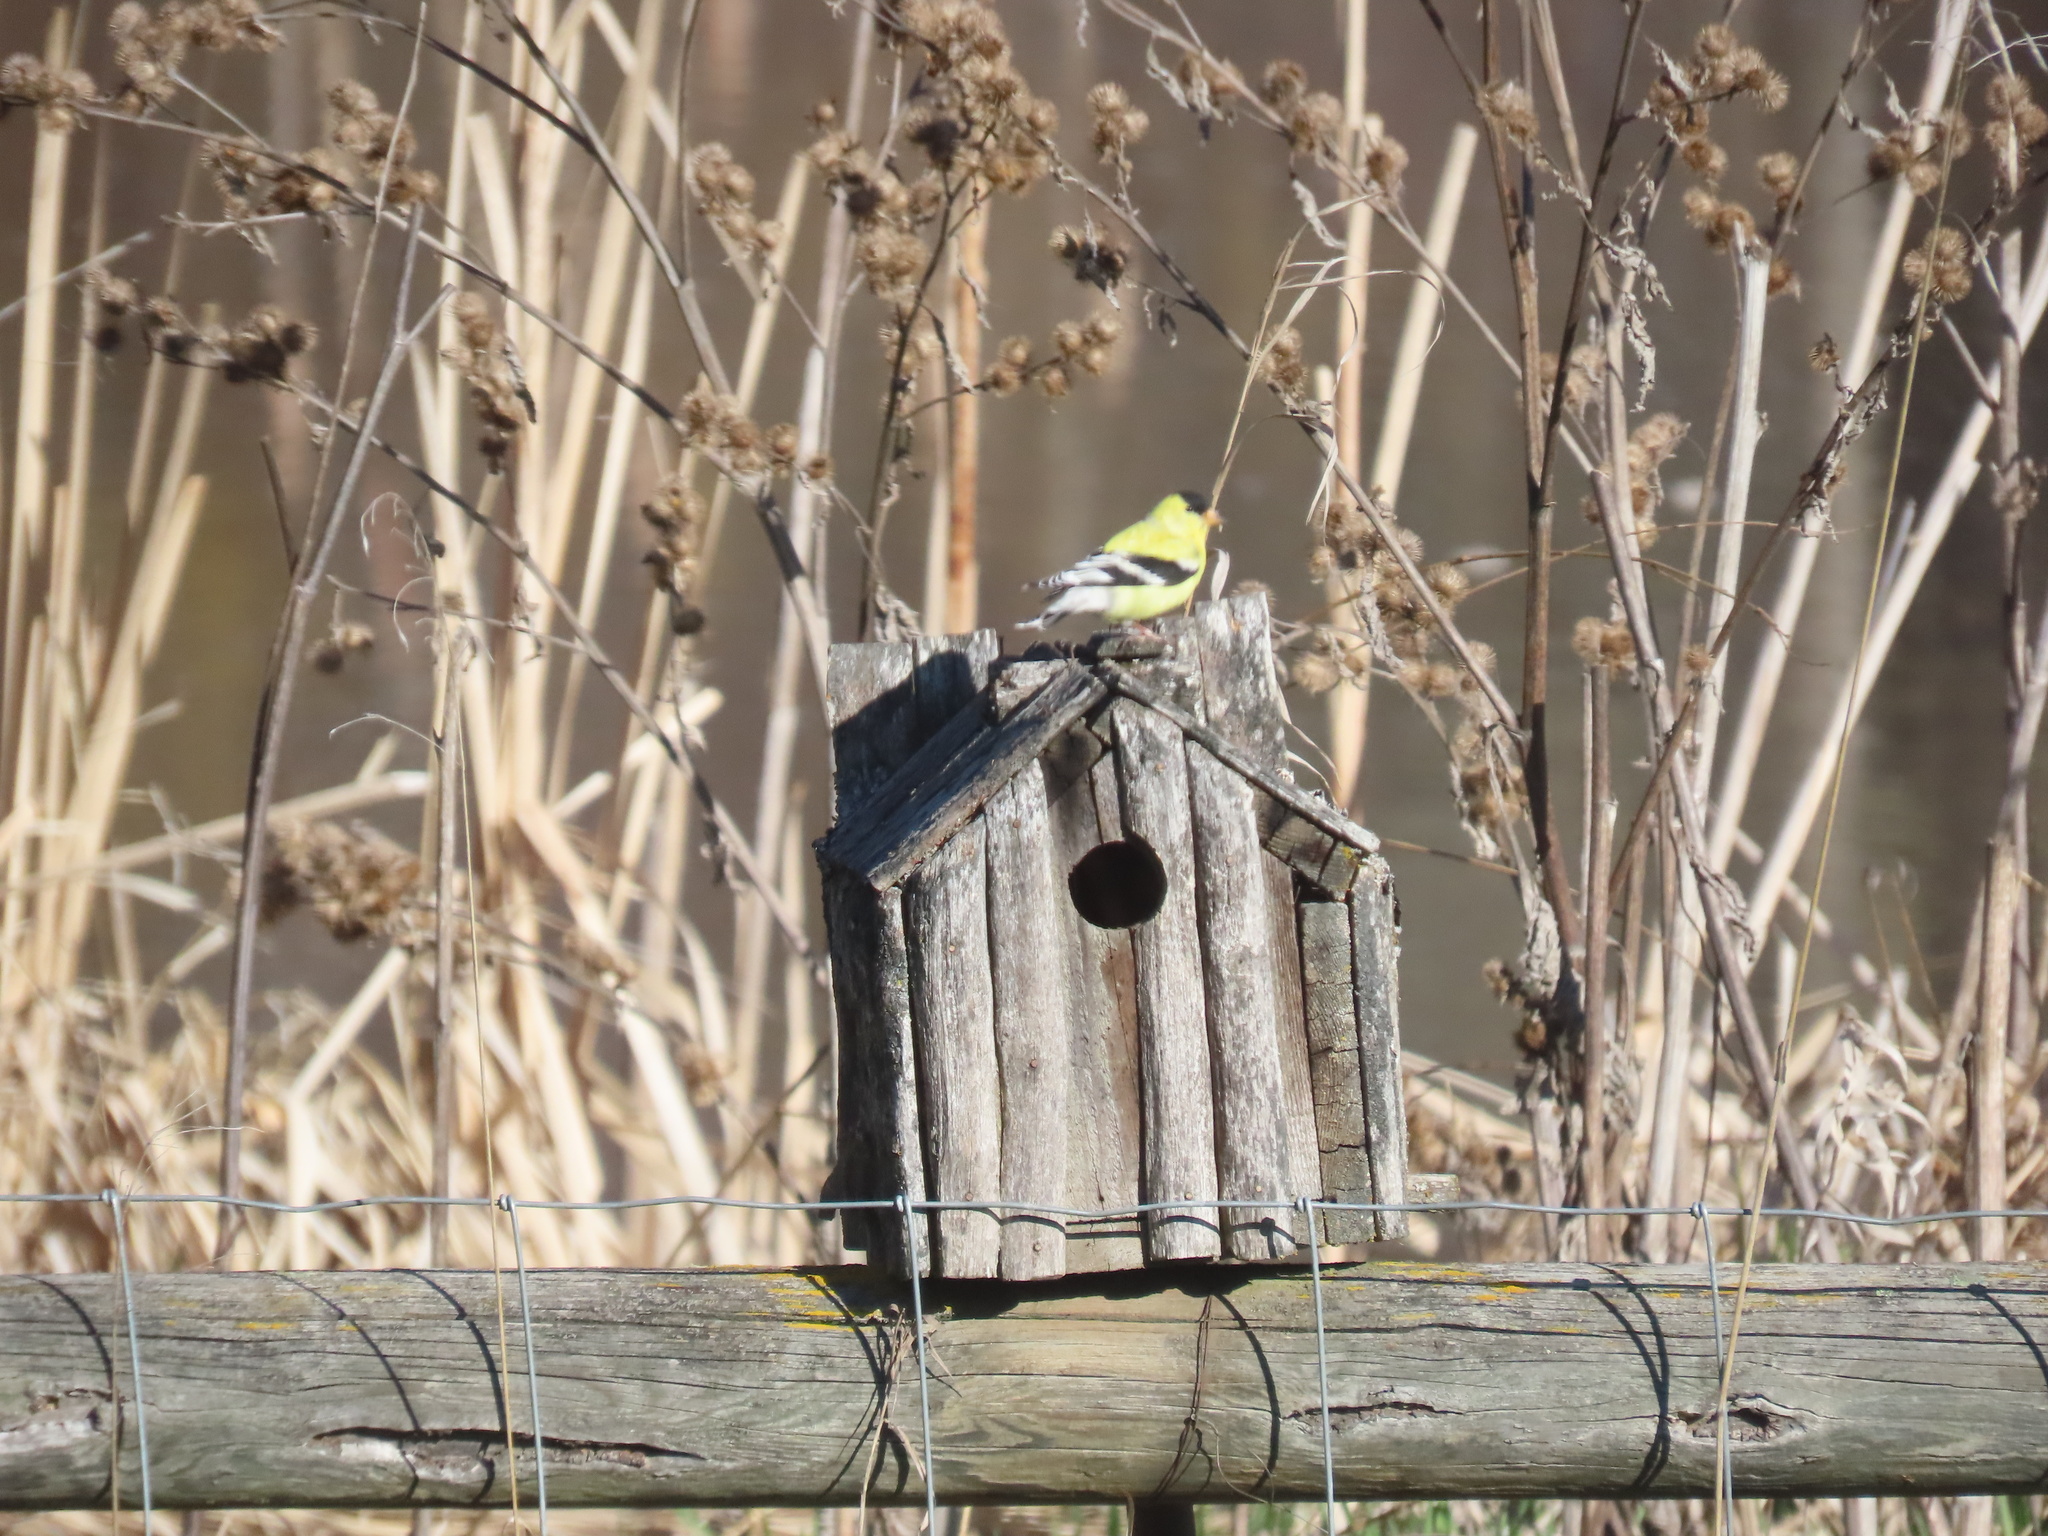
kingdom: Animalia
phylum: Chordata
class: Aves
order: Passeriformes
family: Fringillidae
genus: Spinus
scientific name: Spinus tristis
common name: American goldfinch
